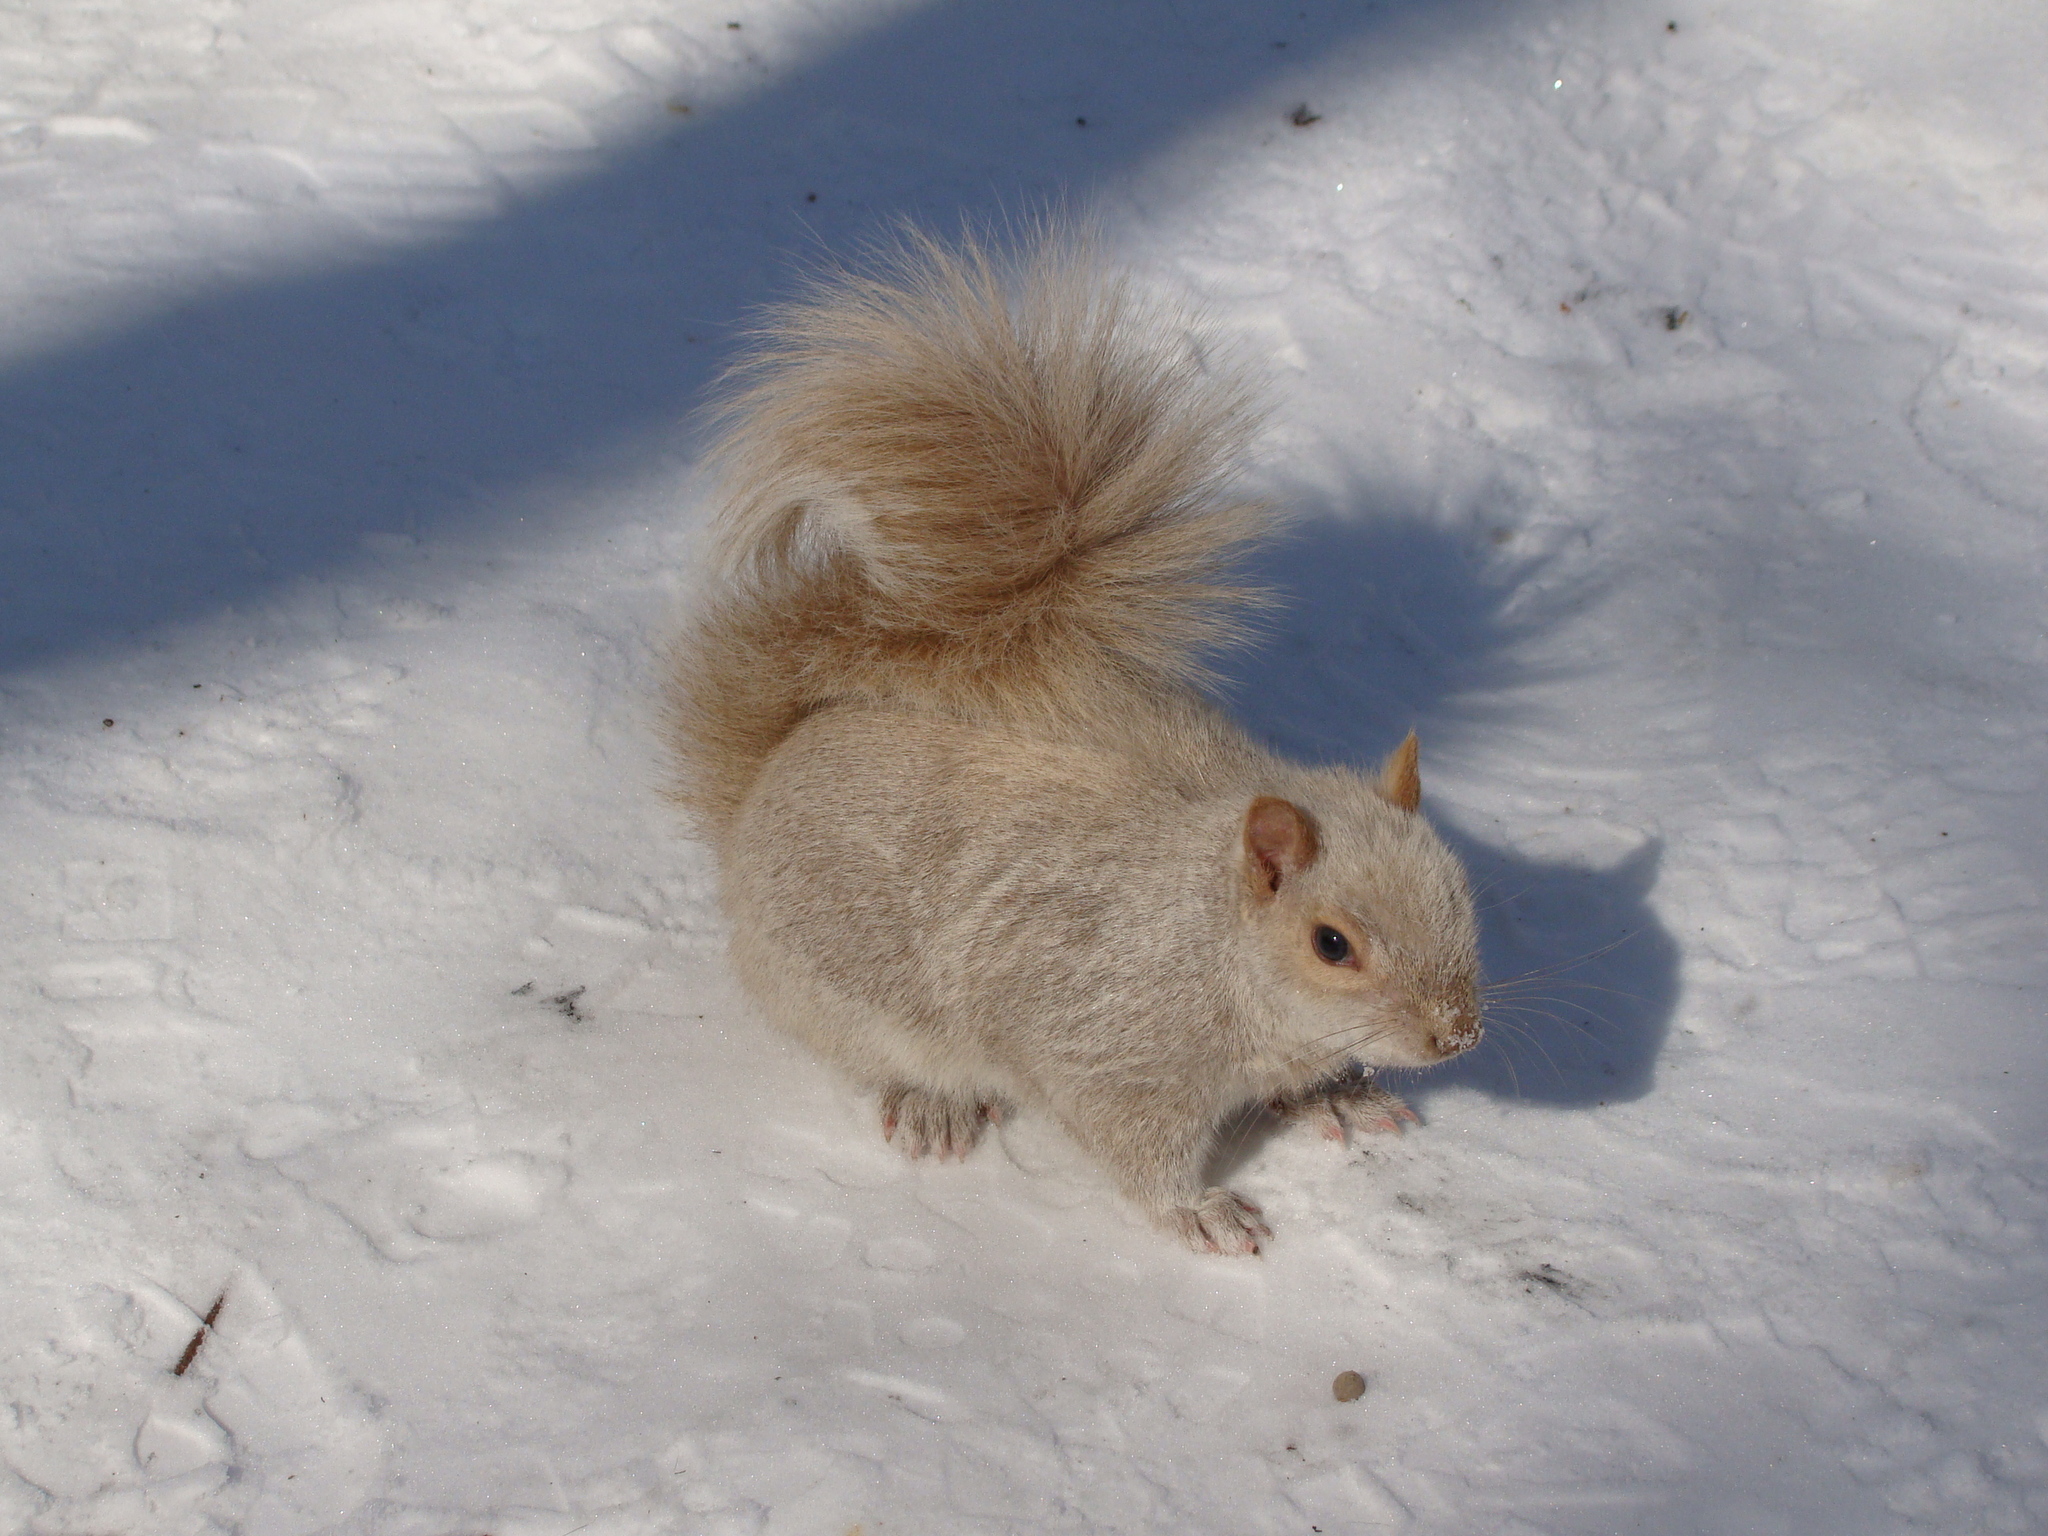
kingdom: Animalia
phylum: Chordata
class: Mammalia
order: Rodentia
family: Sciuridae
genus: Sciurus
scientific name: Sciurus carolinensis
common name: Eastern gray squirrel
